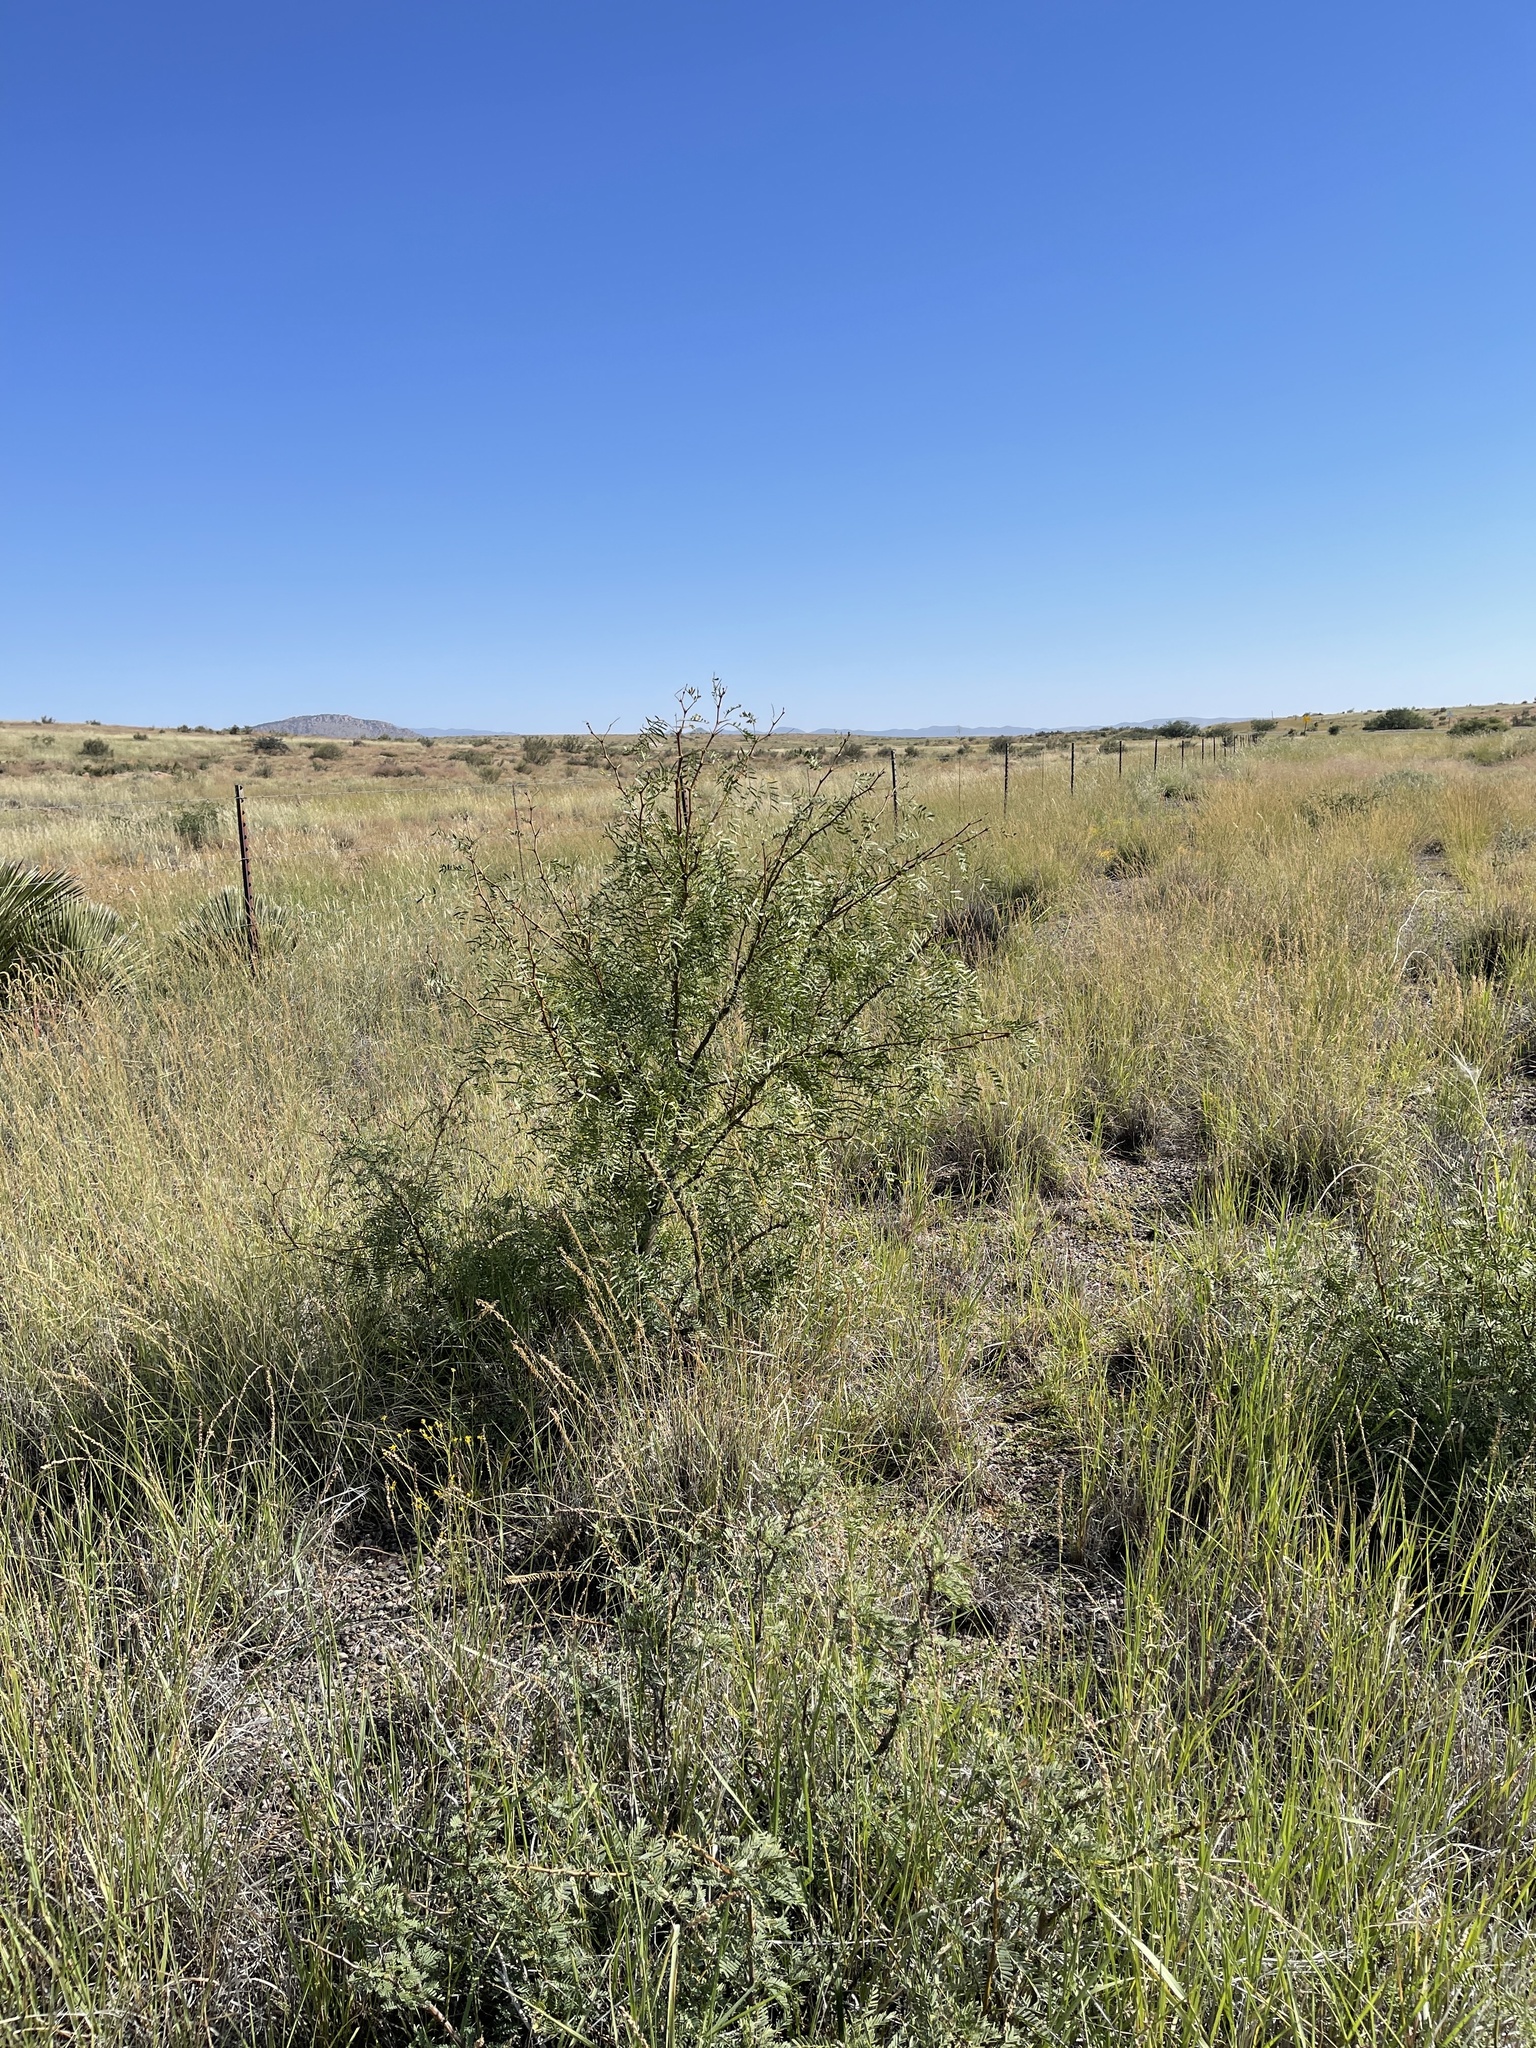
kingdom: Plantae
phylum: Tracheophyta
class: Magnoliopsida
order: Fabales
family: Fabaceae
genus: Prosopis
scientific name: Prosopis glandulosa
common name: Honey mesquite
